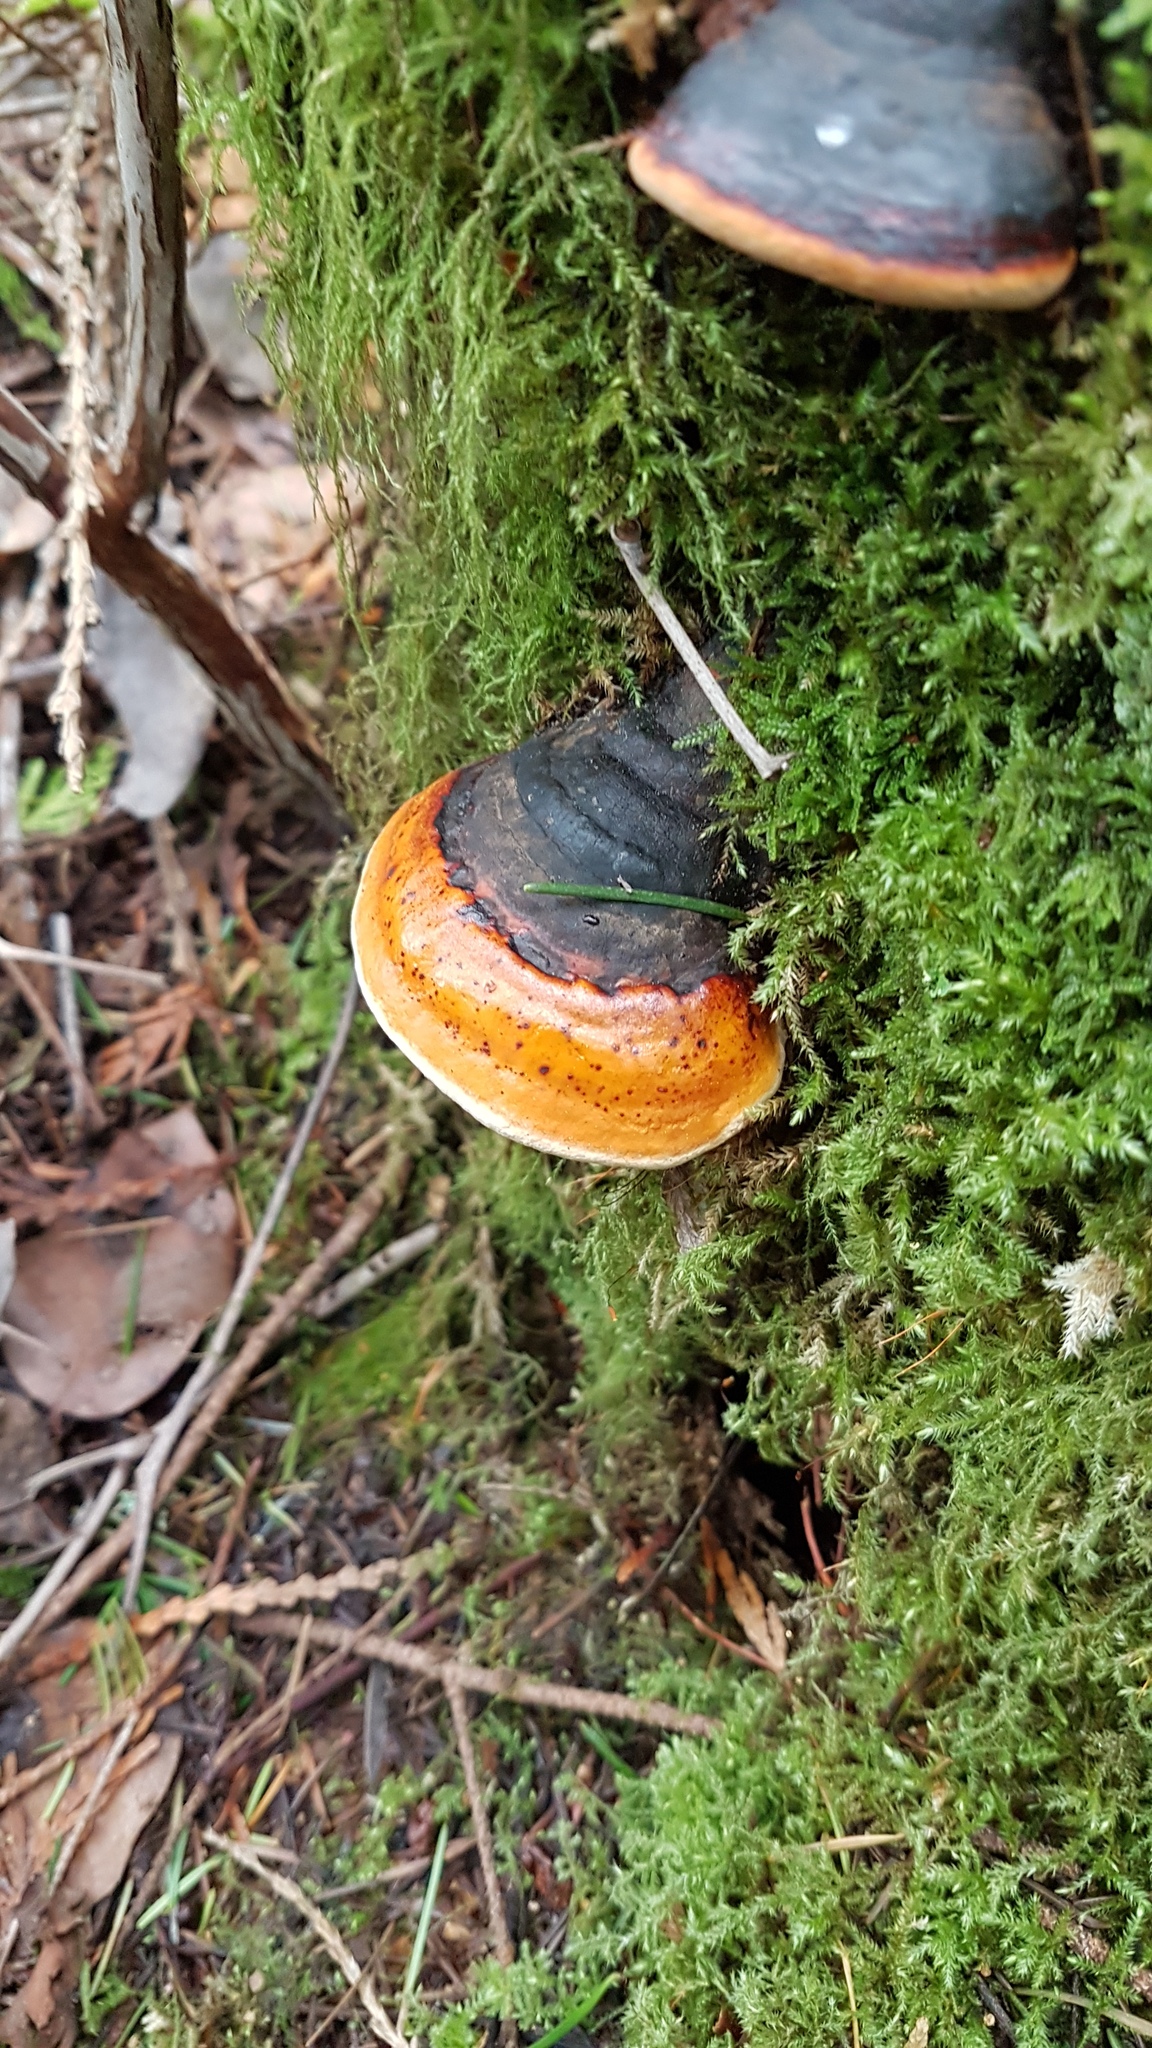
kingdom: Fungi
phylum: Basidiomycota
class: Agaricomycetes
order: Polyporales
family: Fomitopsidaceae
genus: Fomitopsis
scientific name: Fomitopsis mounceae
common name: Northern red belt
